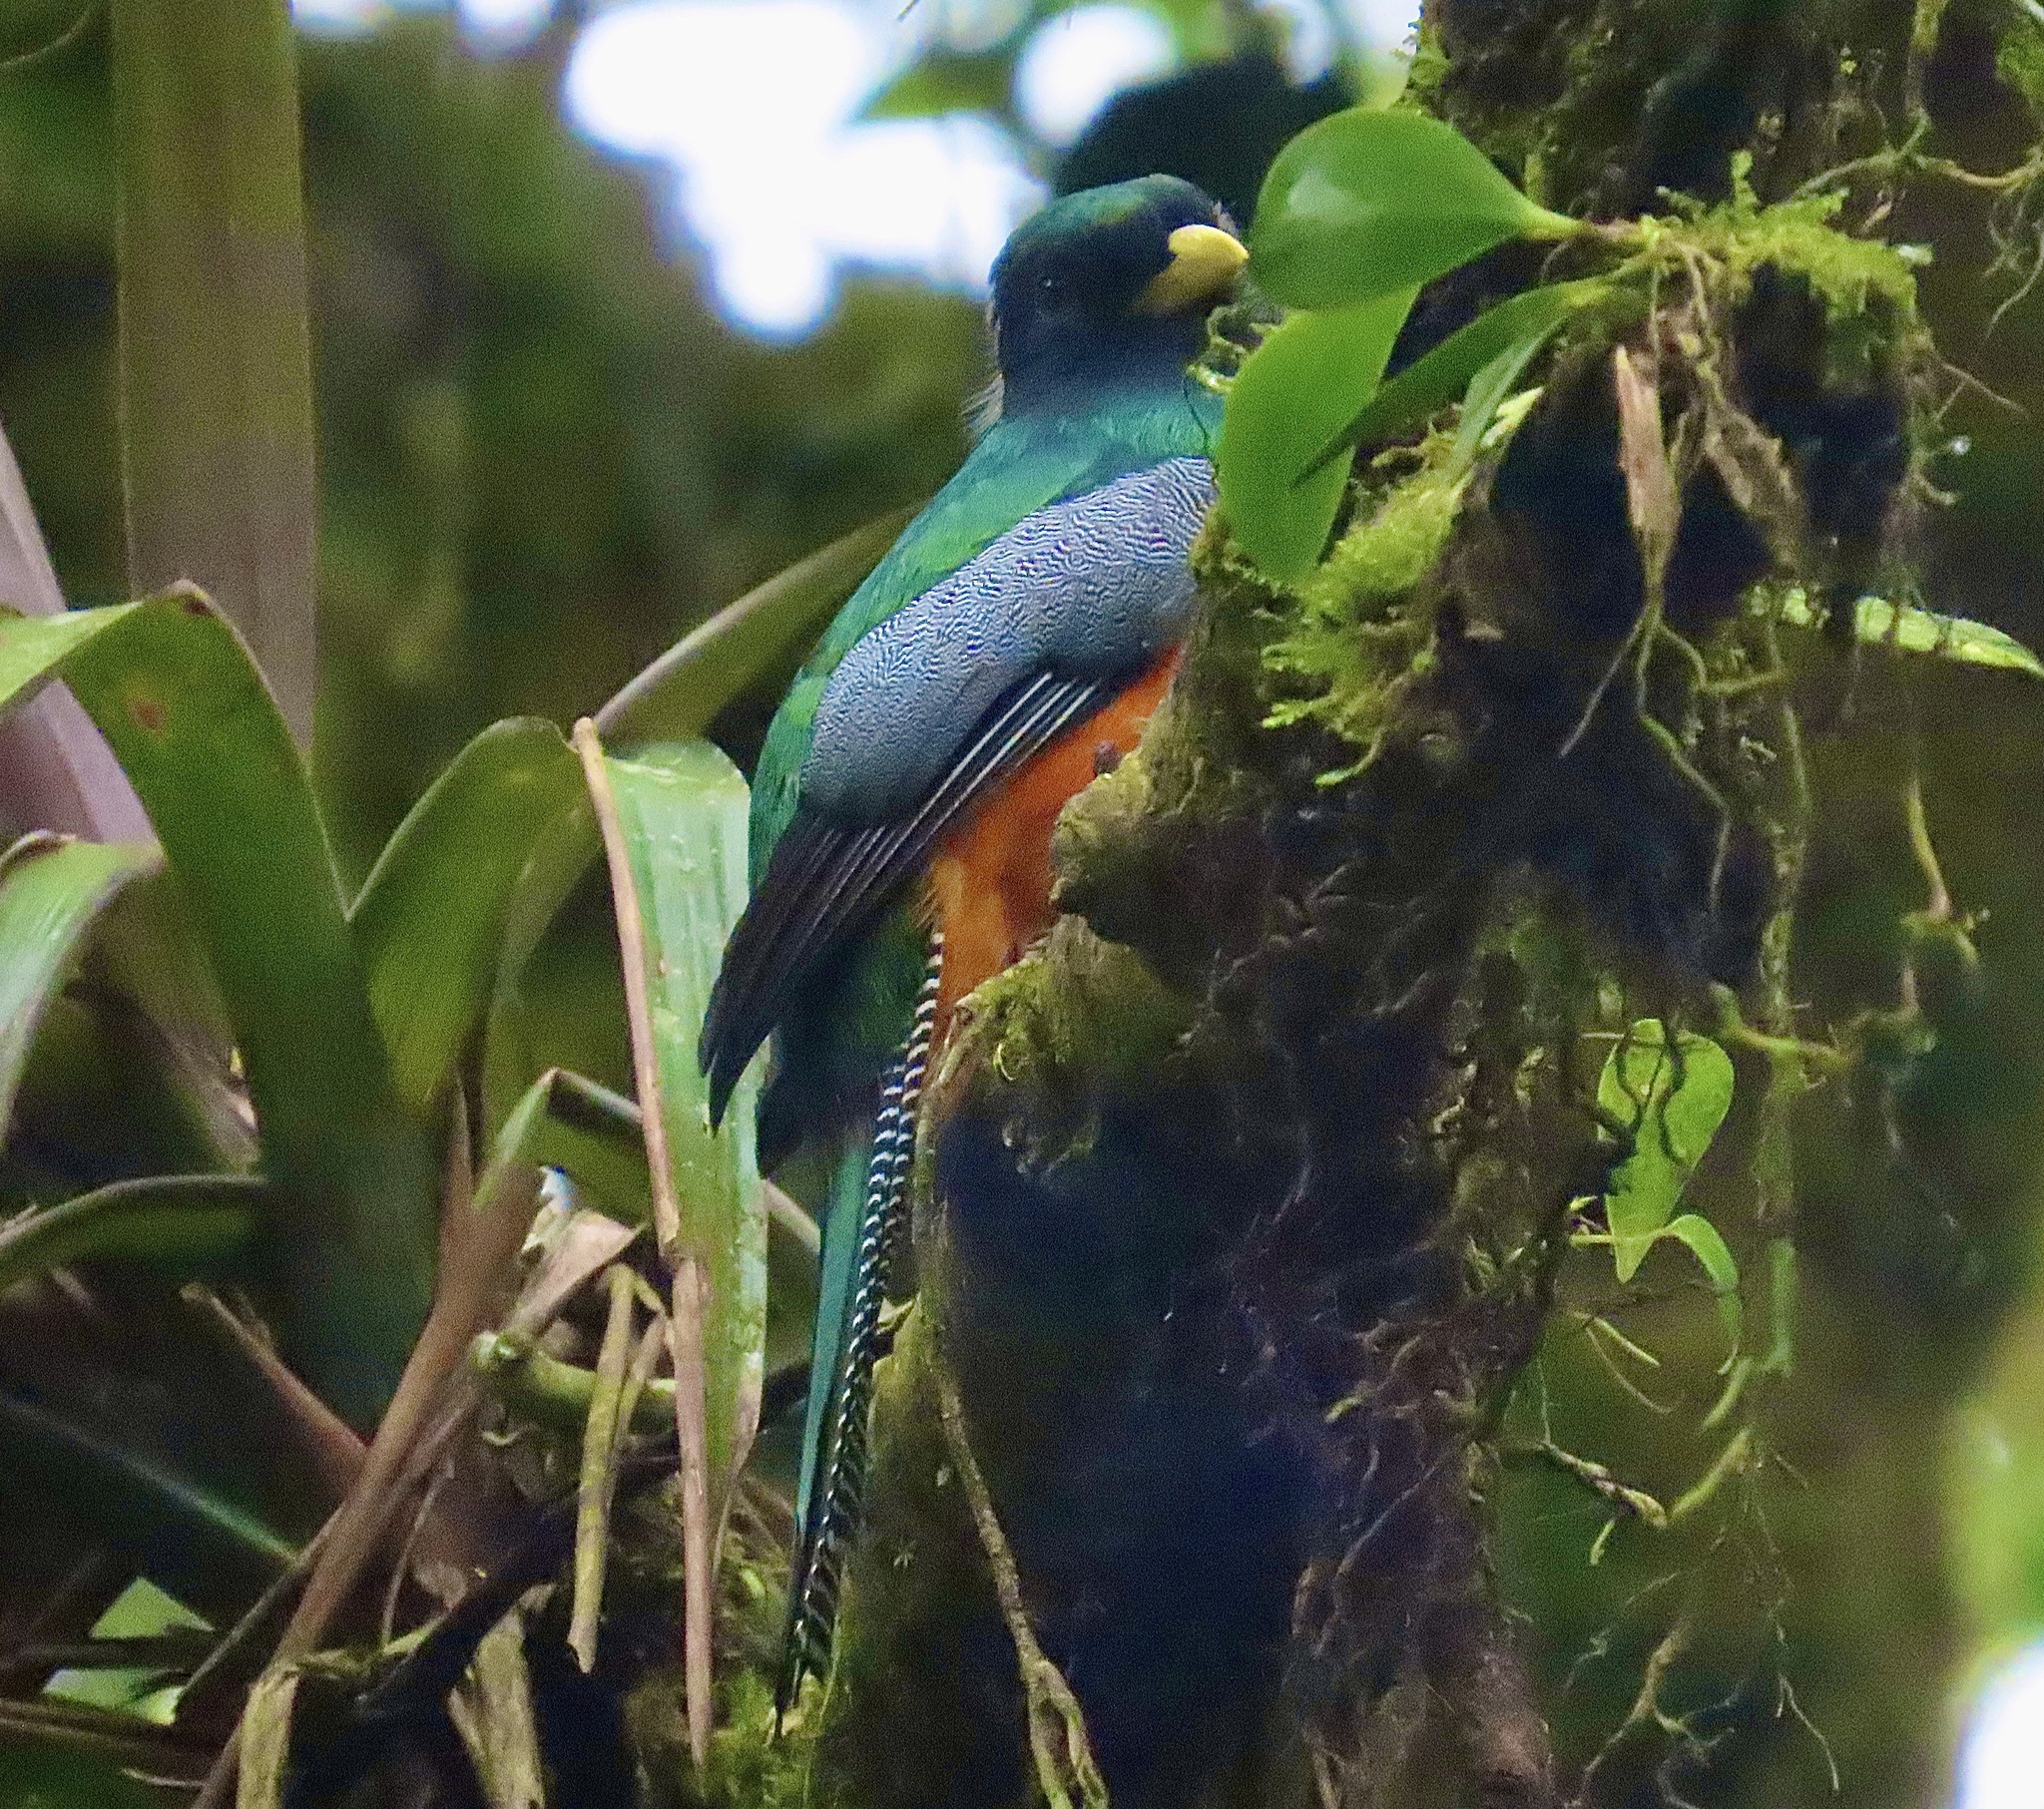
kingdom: Animalia
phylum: Chordata
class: Aves
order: Trogoniformes
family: Trogonidae
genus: Trogon
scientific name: Trogon collaris
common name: Collared trogon
